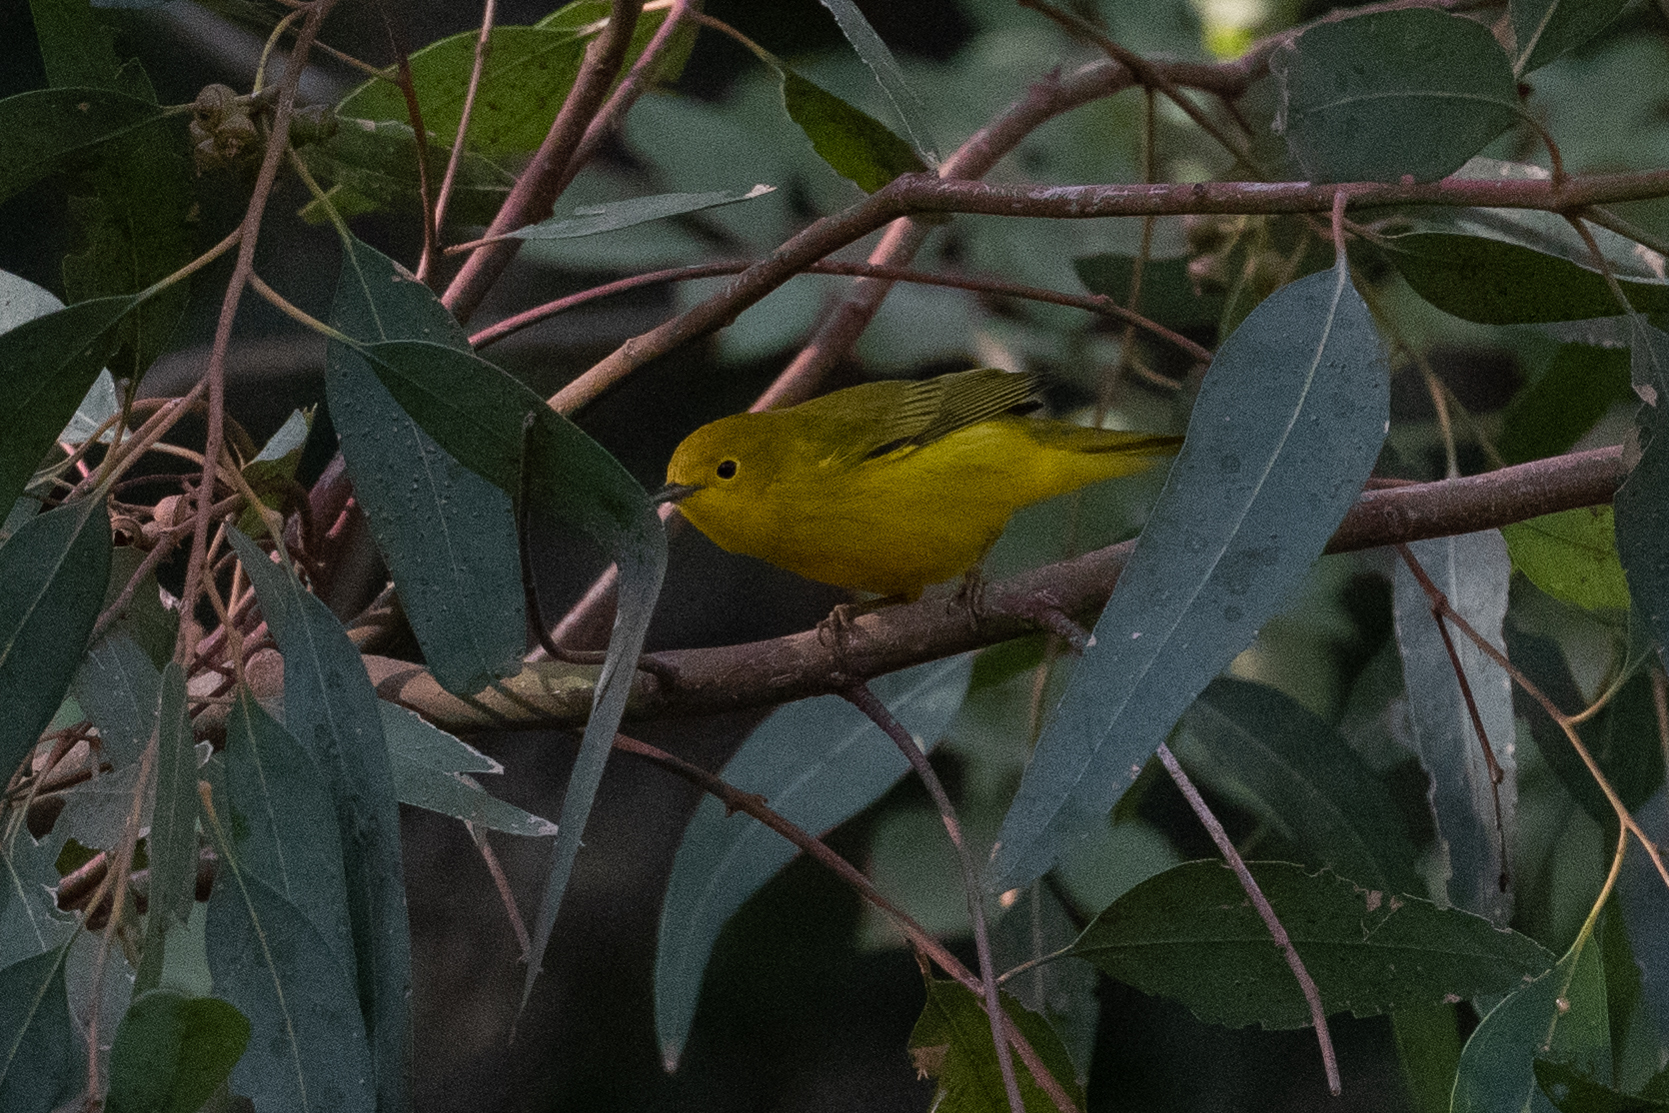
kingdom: Animalia
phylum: Chordata
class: Aves
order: Passeriformes
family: Parulidae
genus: Setophaga
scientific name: Setophaga petechia
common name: Yellow warbler
